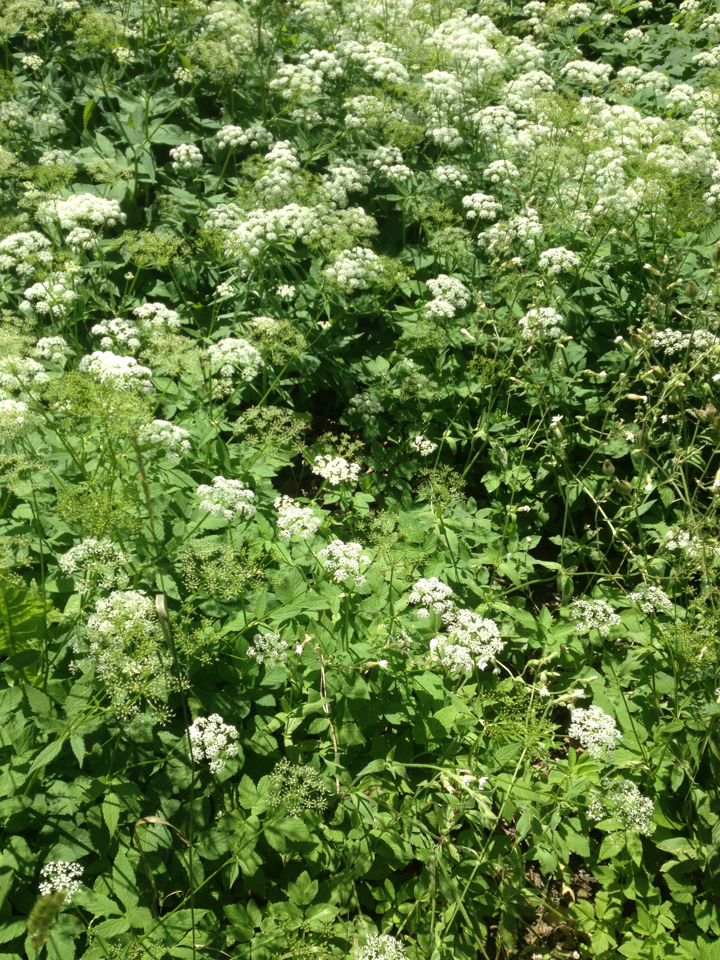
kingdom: Plantae
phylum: Tracheophyta
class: Magnoliopsida
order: Apiales
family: Apiaceae
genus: Aegopodium
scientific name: Aegopodium podagraria
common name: Ground-elder
